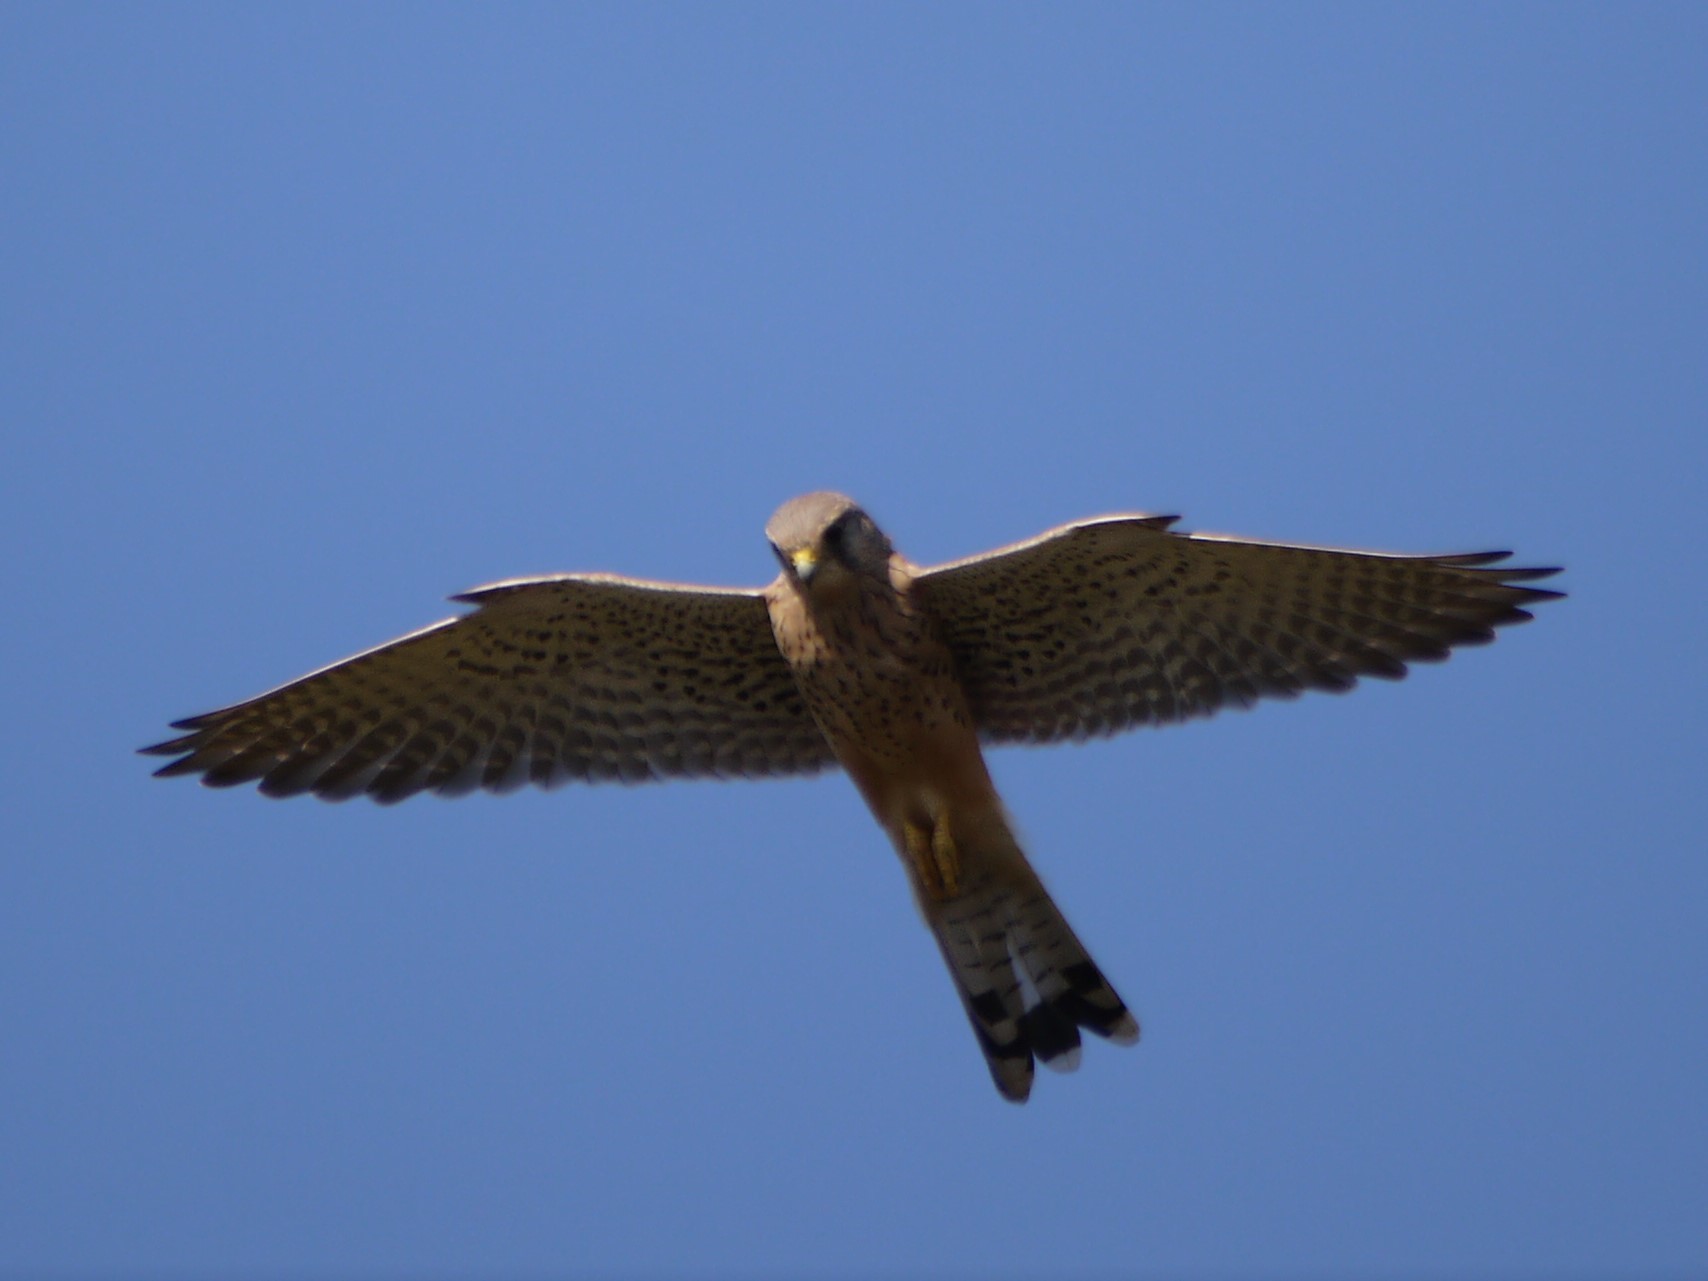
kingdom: Animalia
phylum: Chordata
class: Aves
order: Falconiformes
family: Falconidae
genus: Falco
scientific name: Falco tinnunculus
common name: Common kestrel
